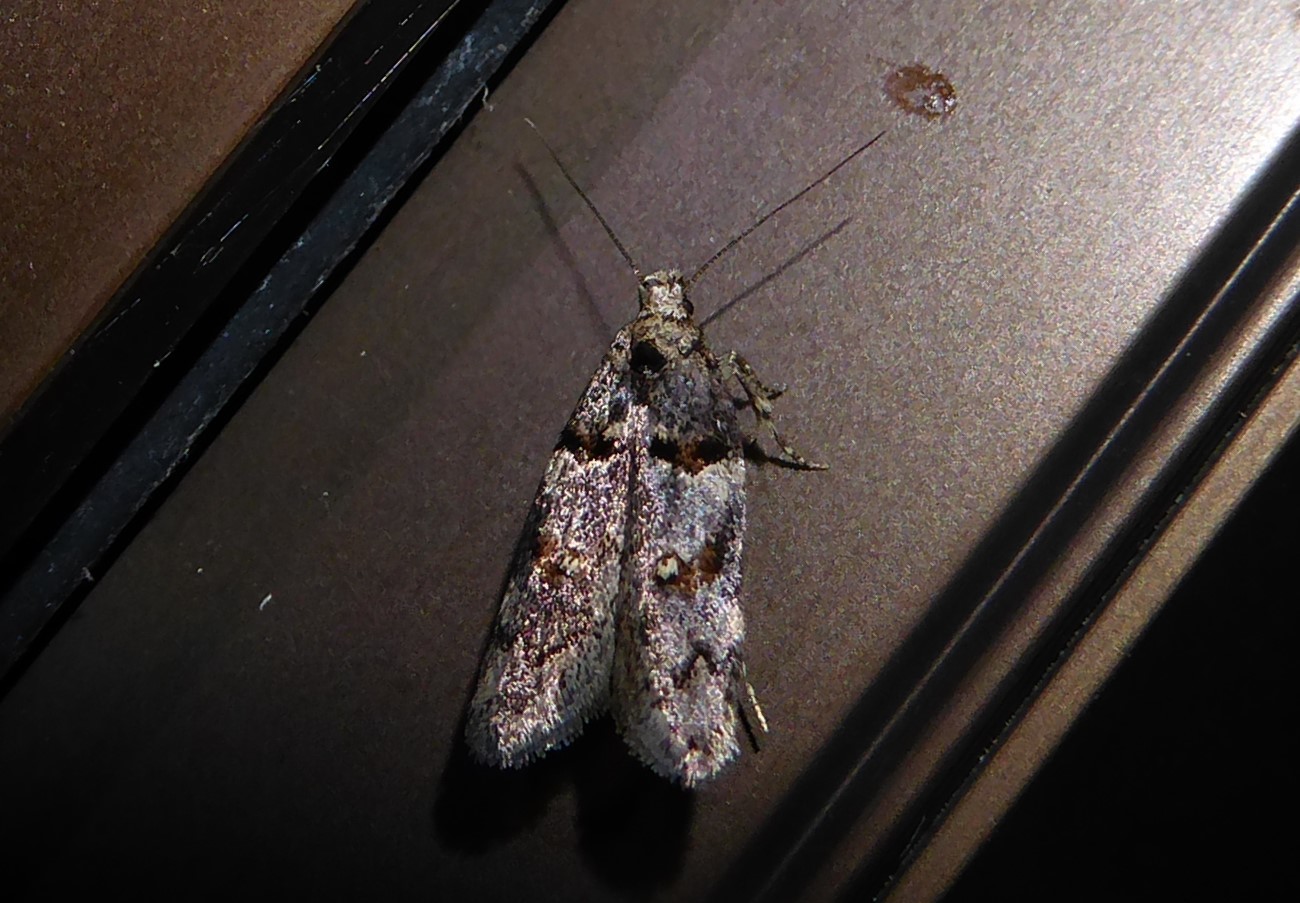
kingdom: Animalia
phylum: Arthropoda
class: Insecta
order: Lepidoptera
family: Oecophoridae
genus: Trachypepla
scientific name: Trachypepla contritella
